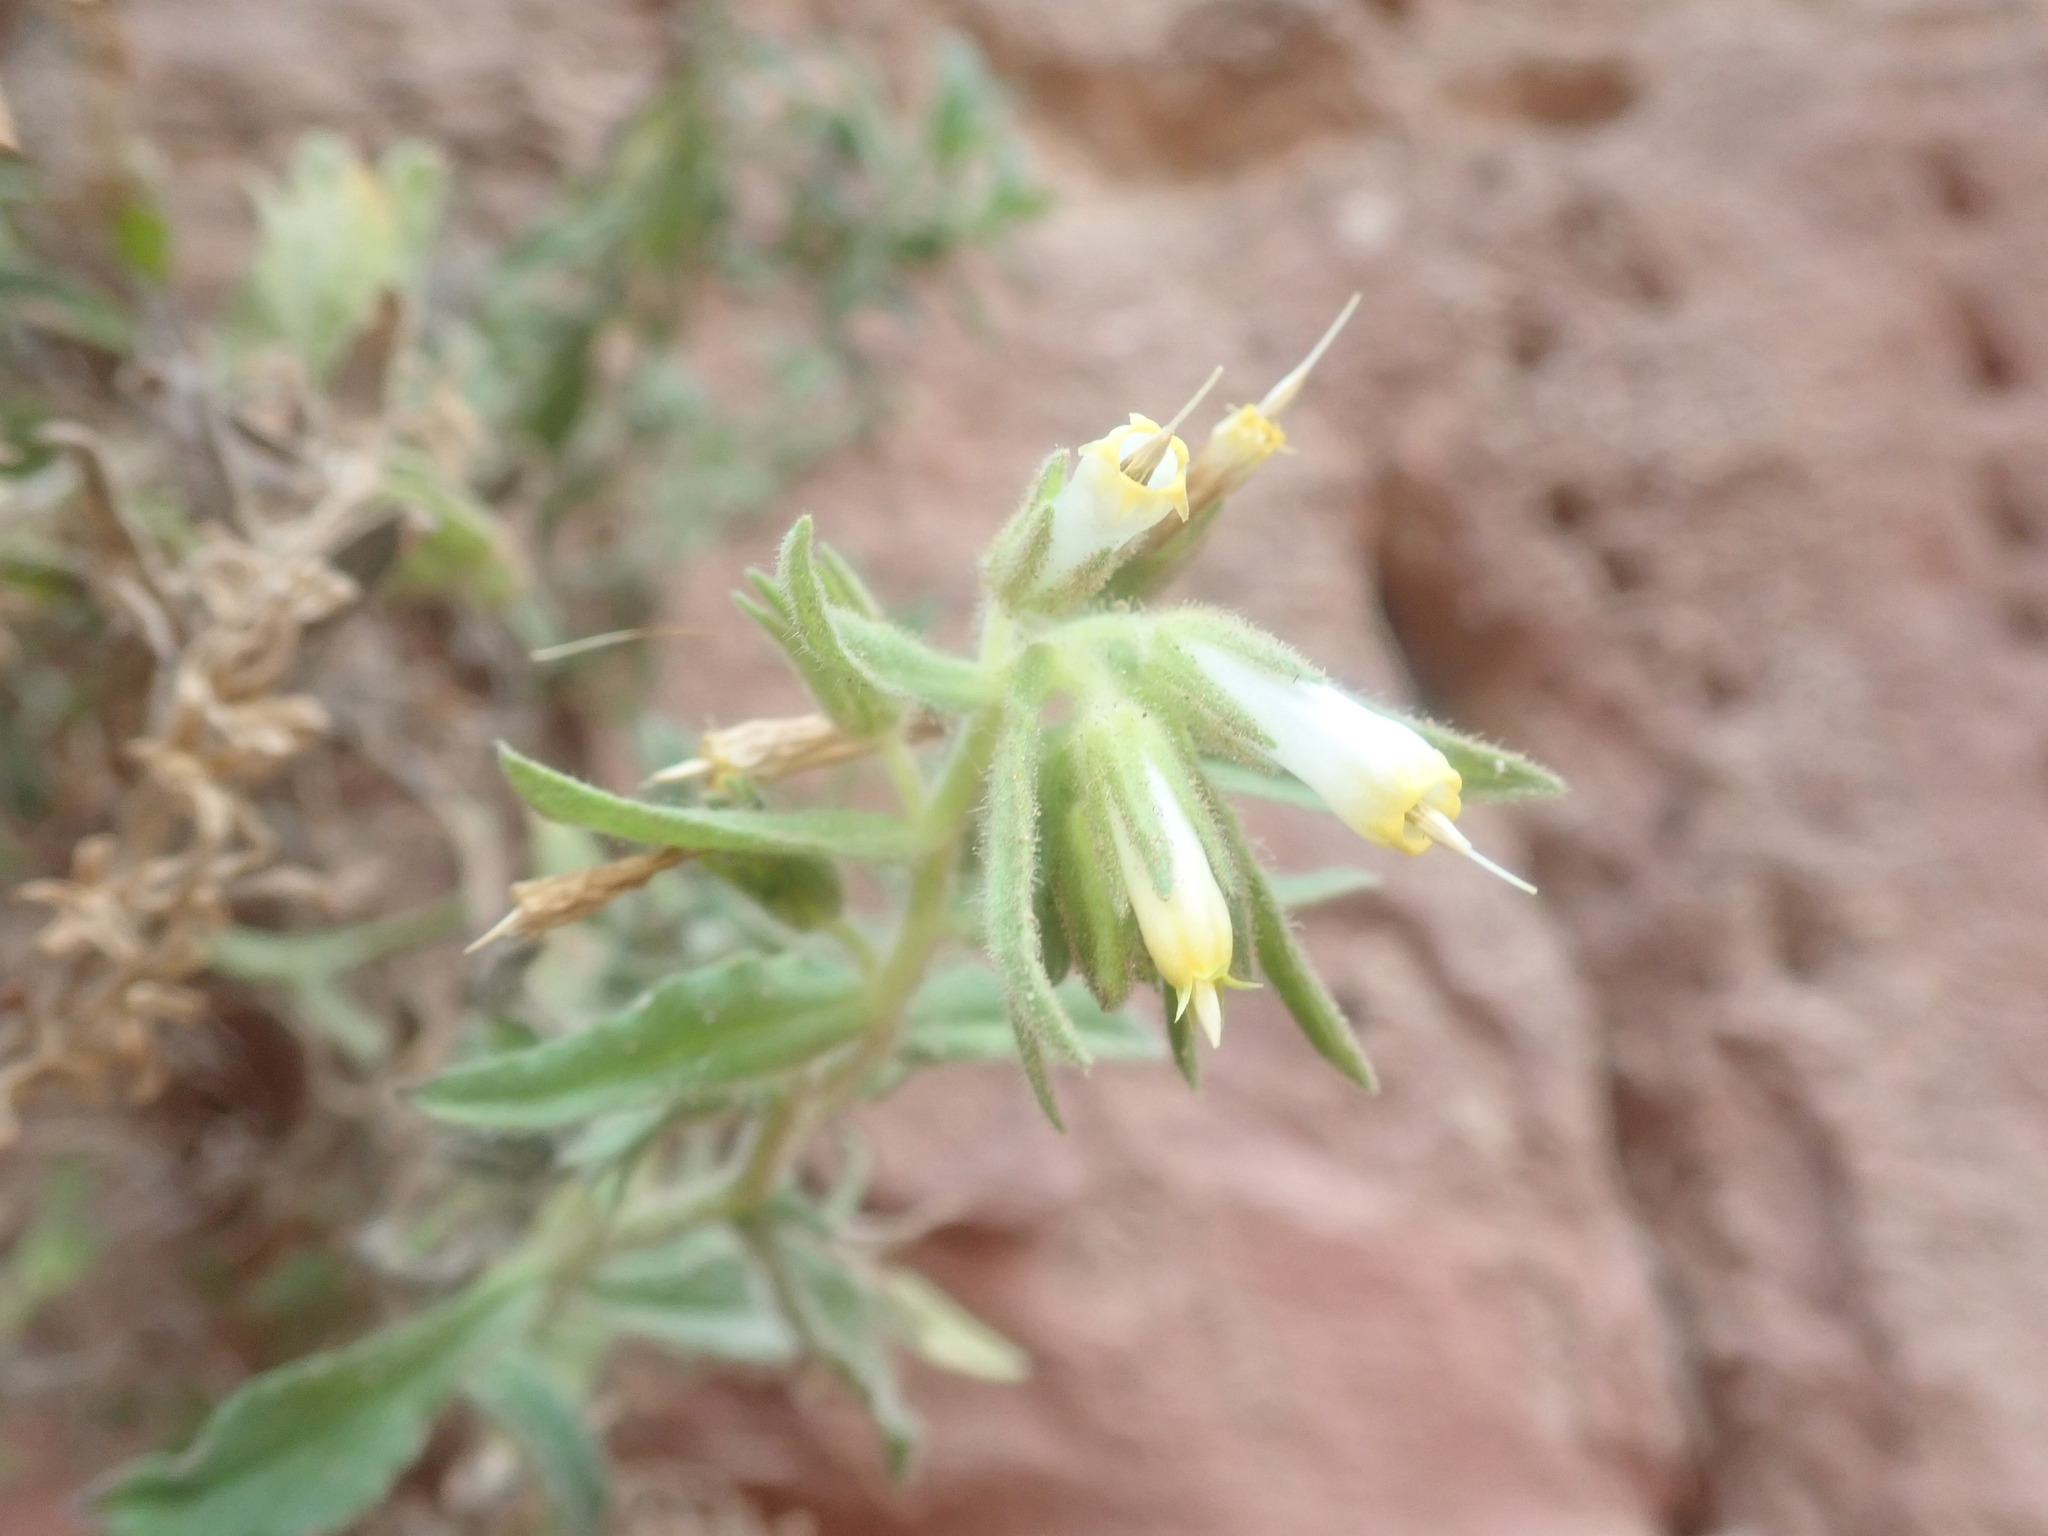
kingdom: Plantae
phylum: Tracheophyta
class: Magnoliopsida
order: Boraginales
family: Boraginaceae
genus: Podonosma
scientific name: Podonosma orientalis
